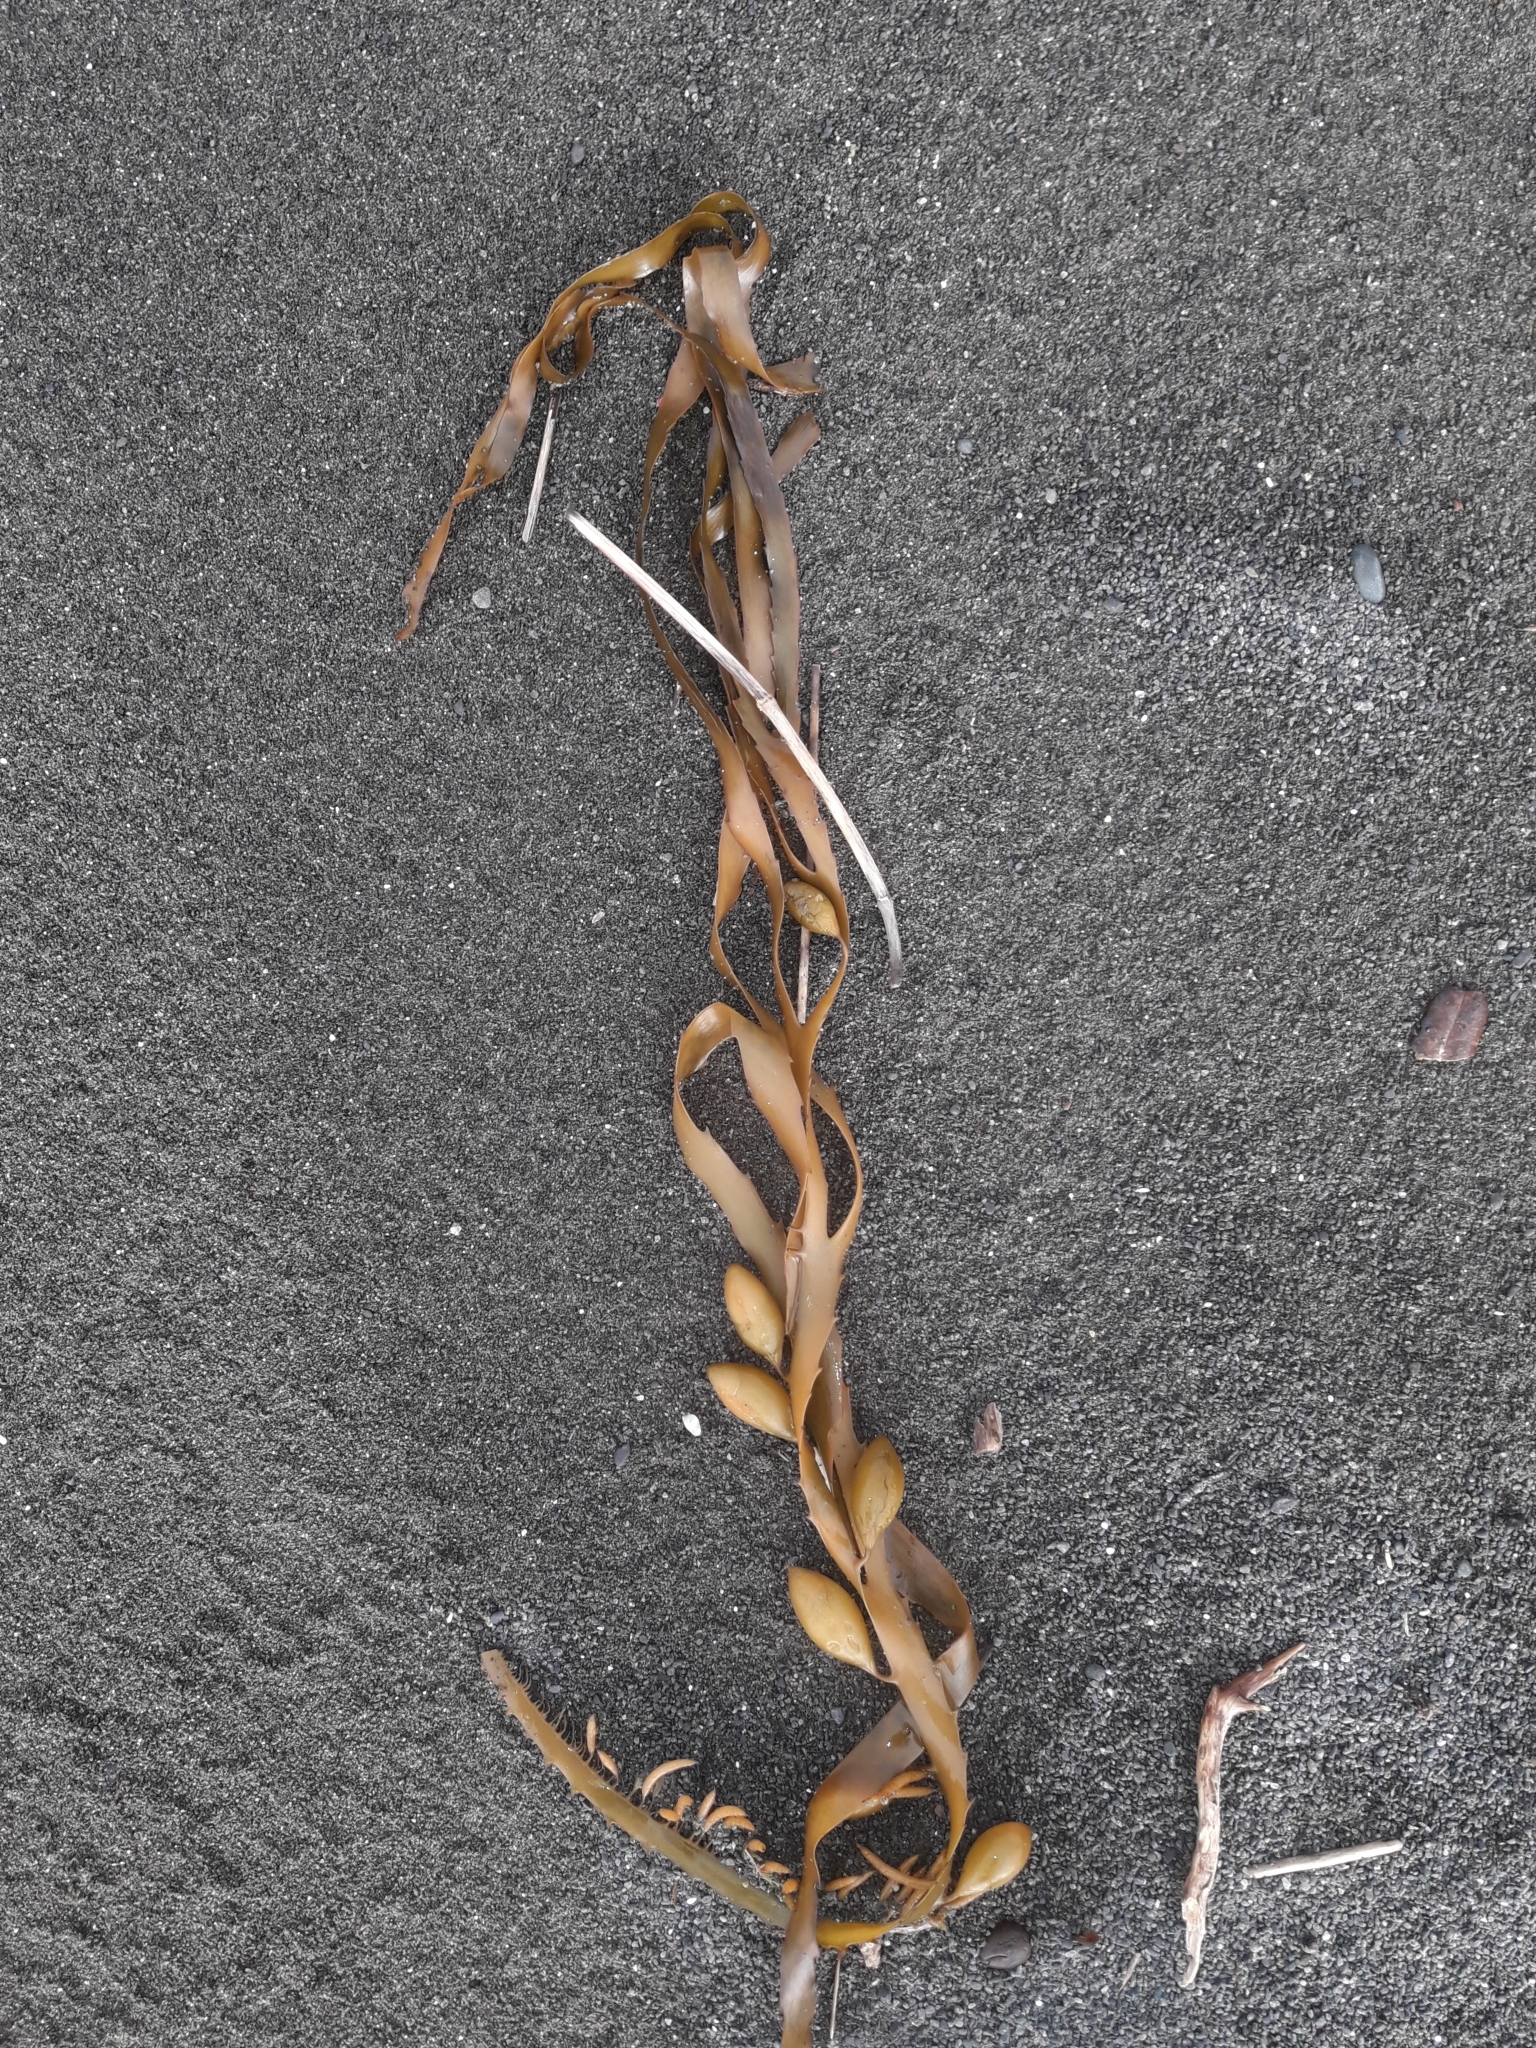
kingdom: Chromista
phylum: Ochrophyta
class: Phaeophyceae
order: Fucales
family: Seirococcaceae
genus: Marginariella
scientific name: Marginariella boryana
